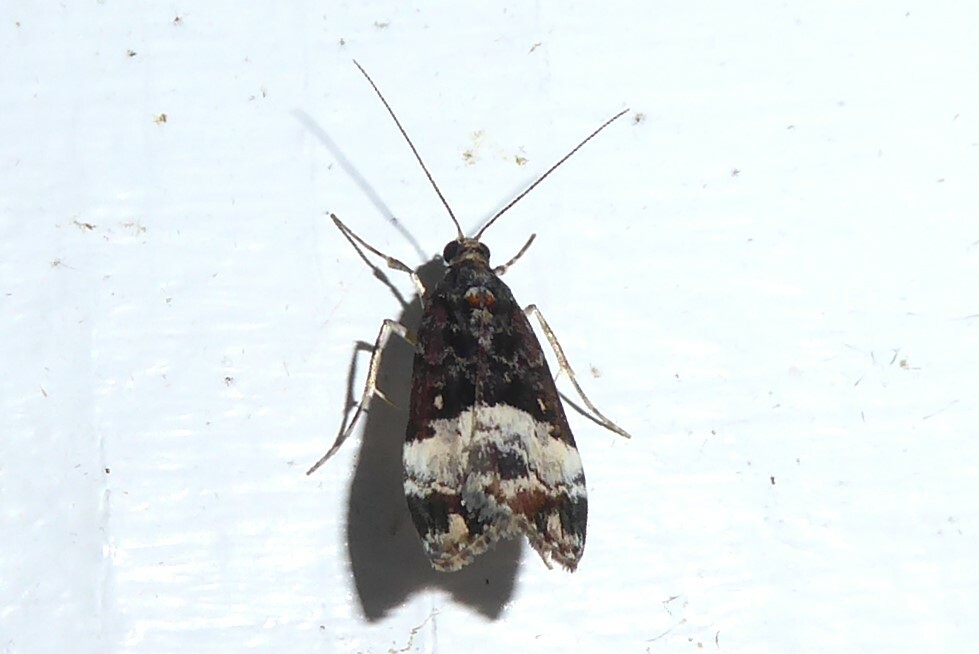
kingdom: Animalia
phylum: Arthropoda
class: Insecta
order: Lepidoptera
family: Crambidae
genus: Scoparia
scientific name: Scoparia minusculalis
